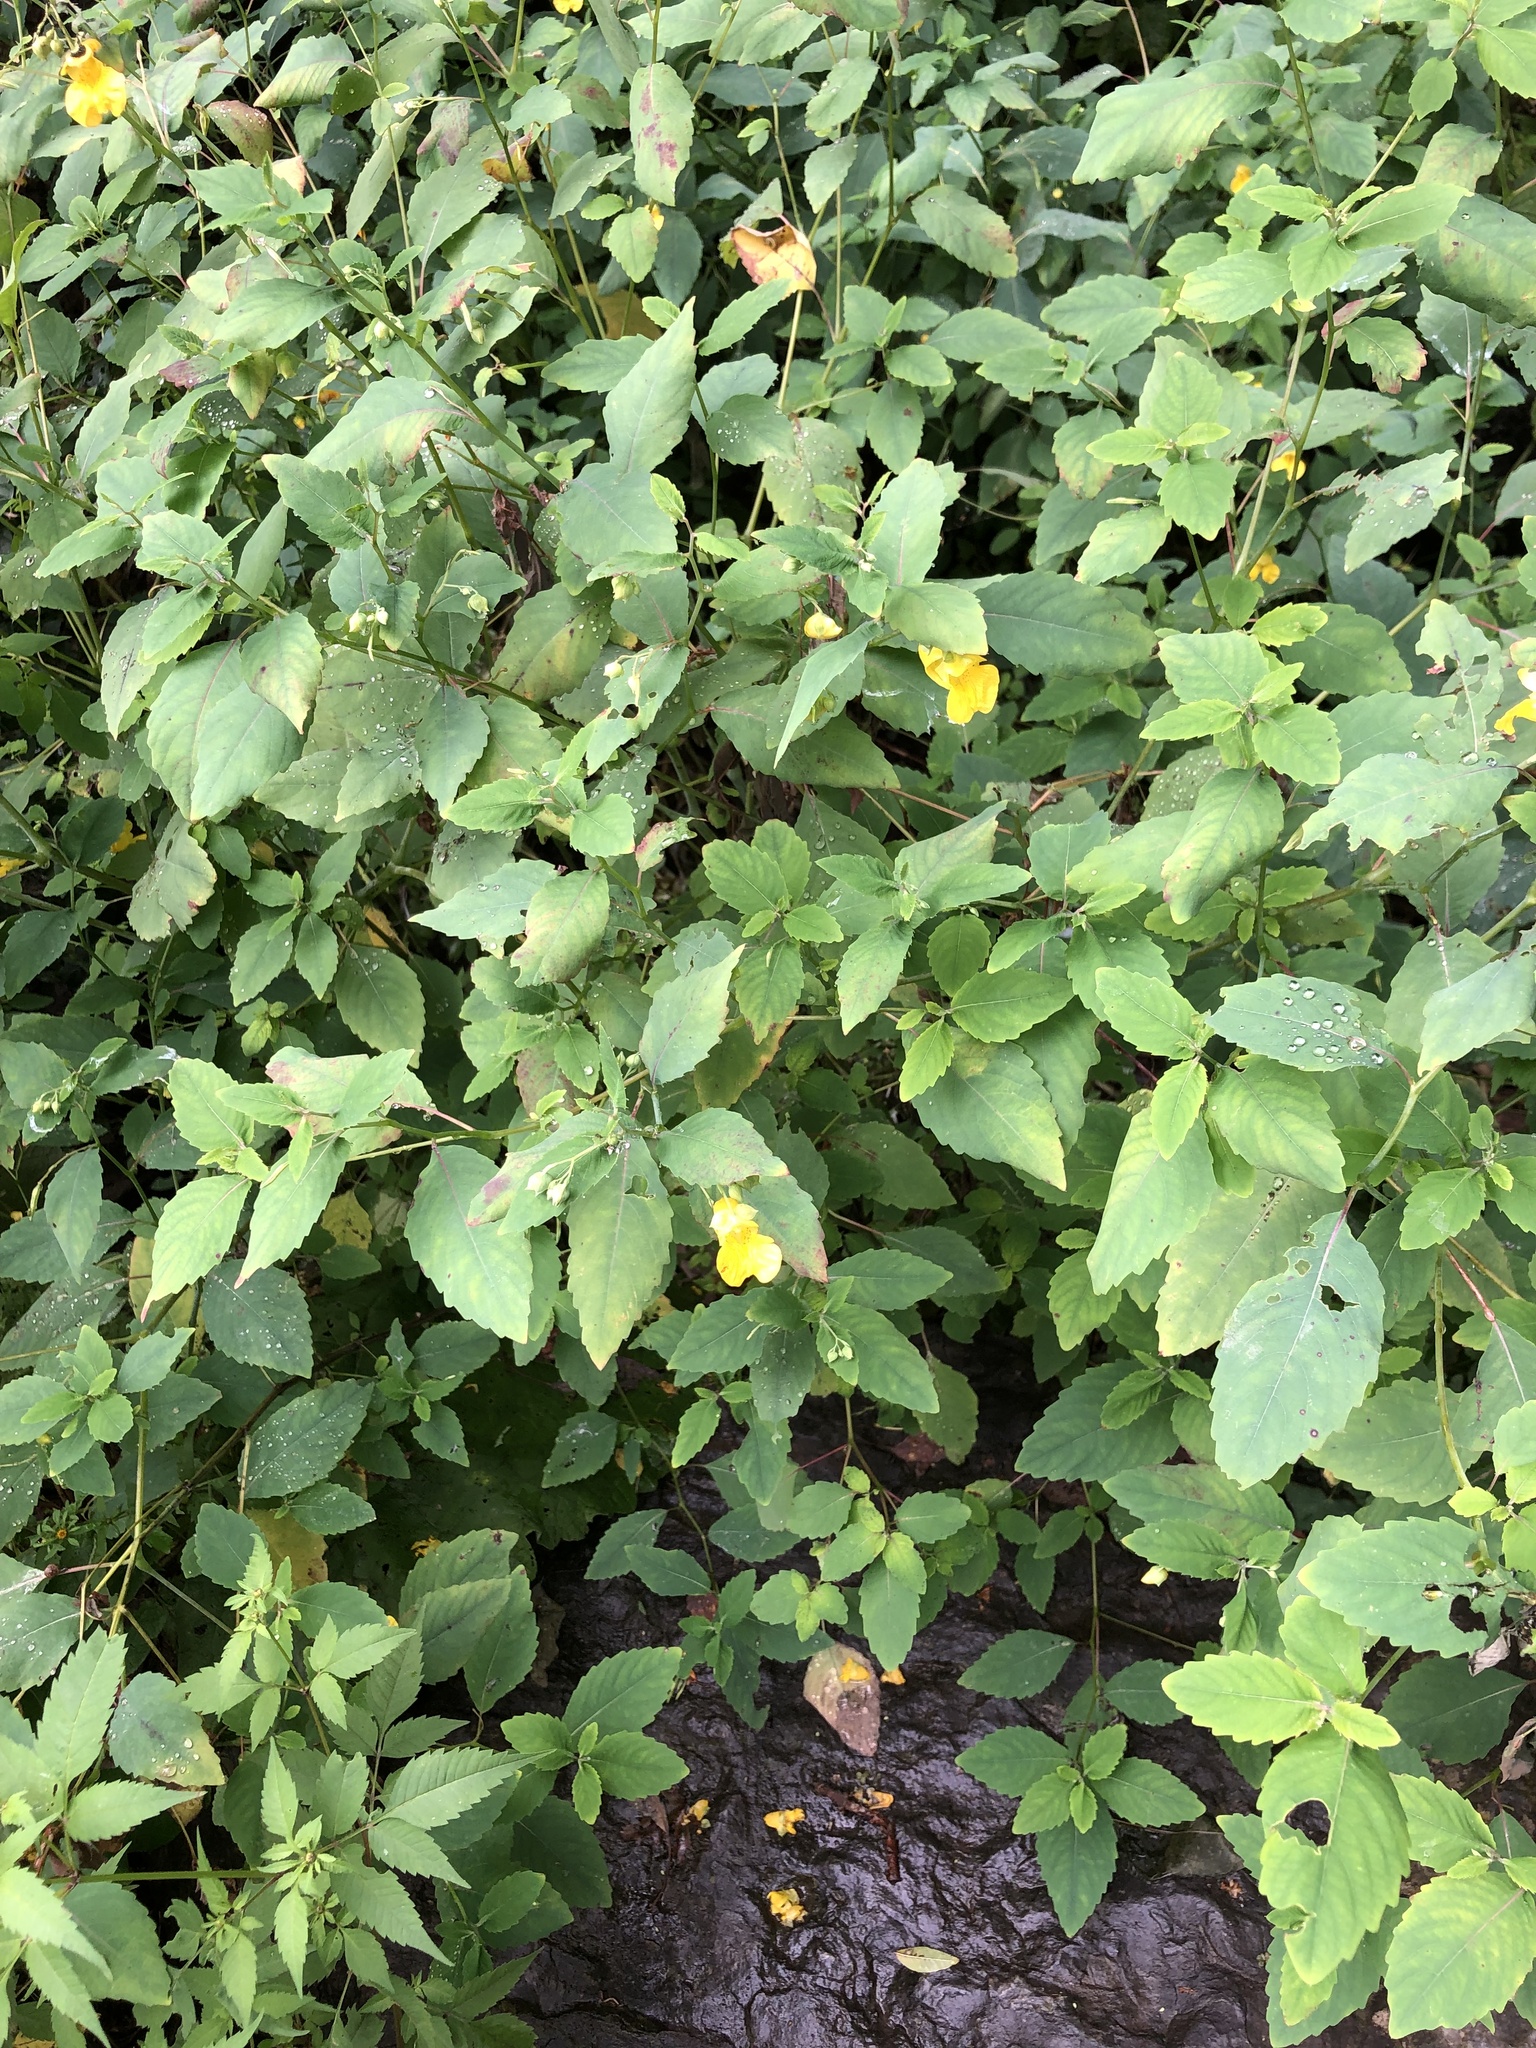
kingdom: Plantae
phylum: Tracheophyta
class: Magnoliopsida
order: Ericales
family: Balsaminaceae
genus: Impatiens
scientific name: Impatiens pallida
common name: Pale snapweed
